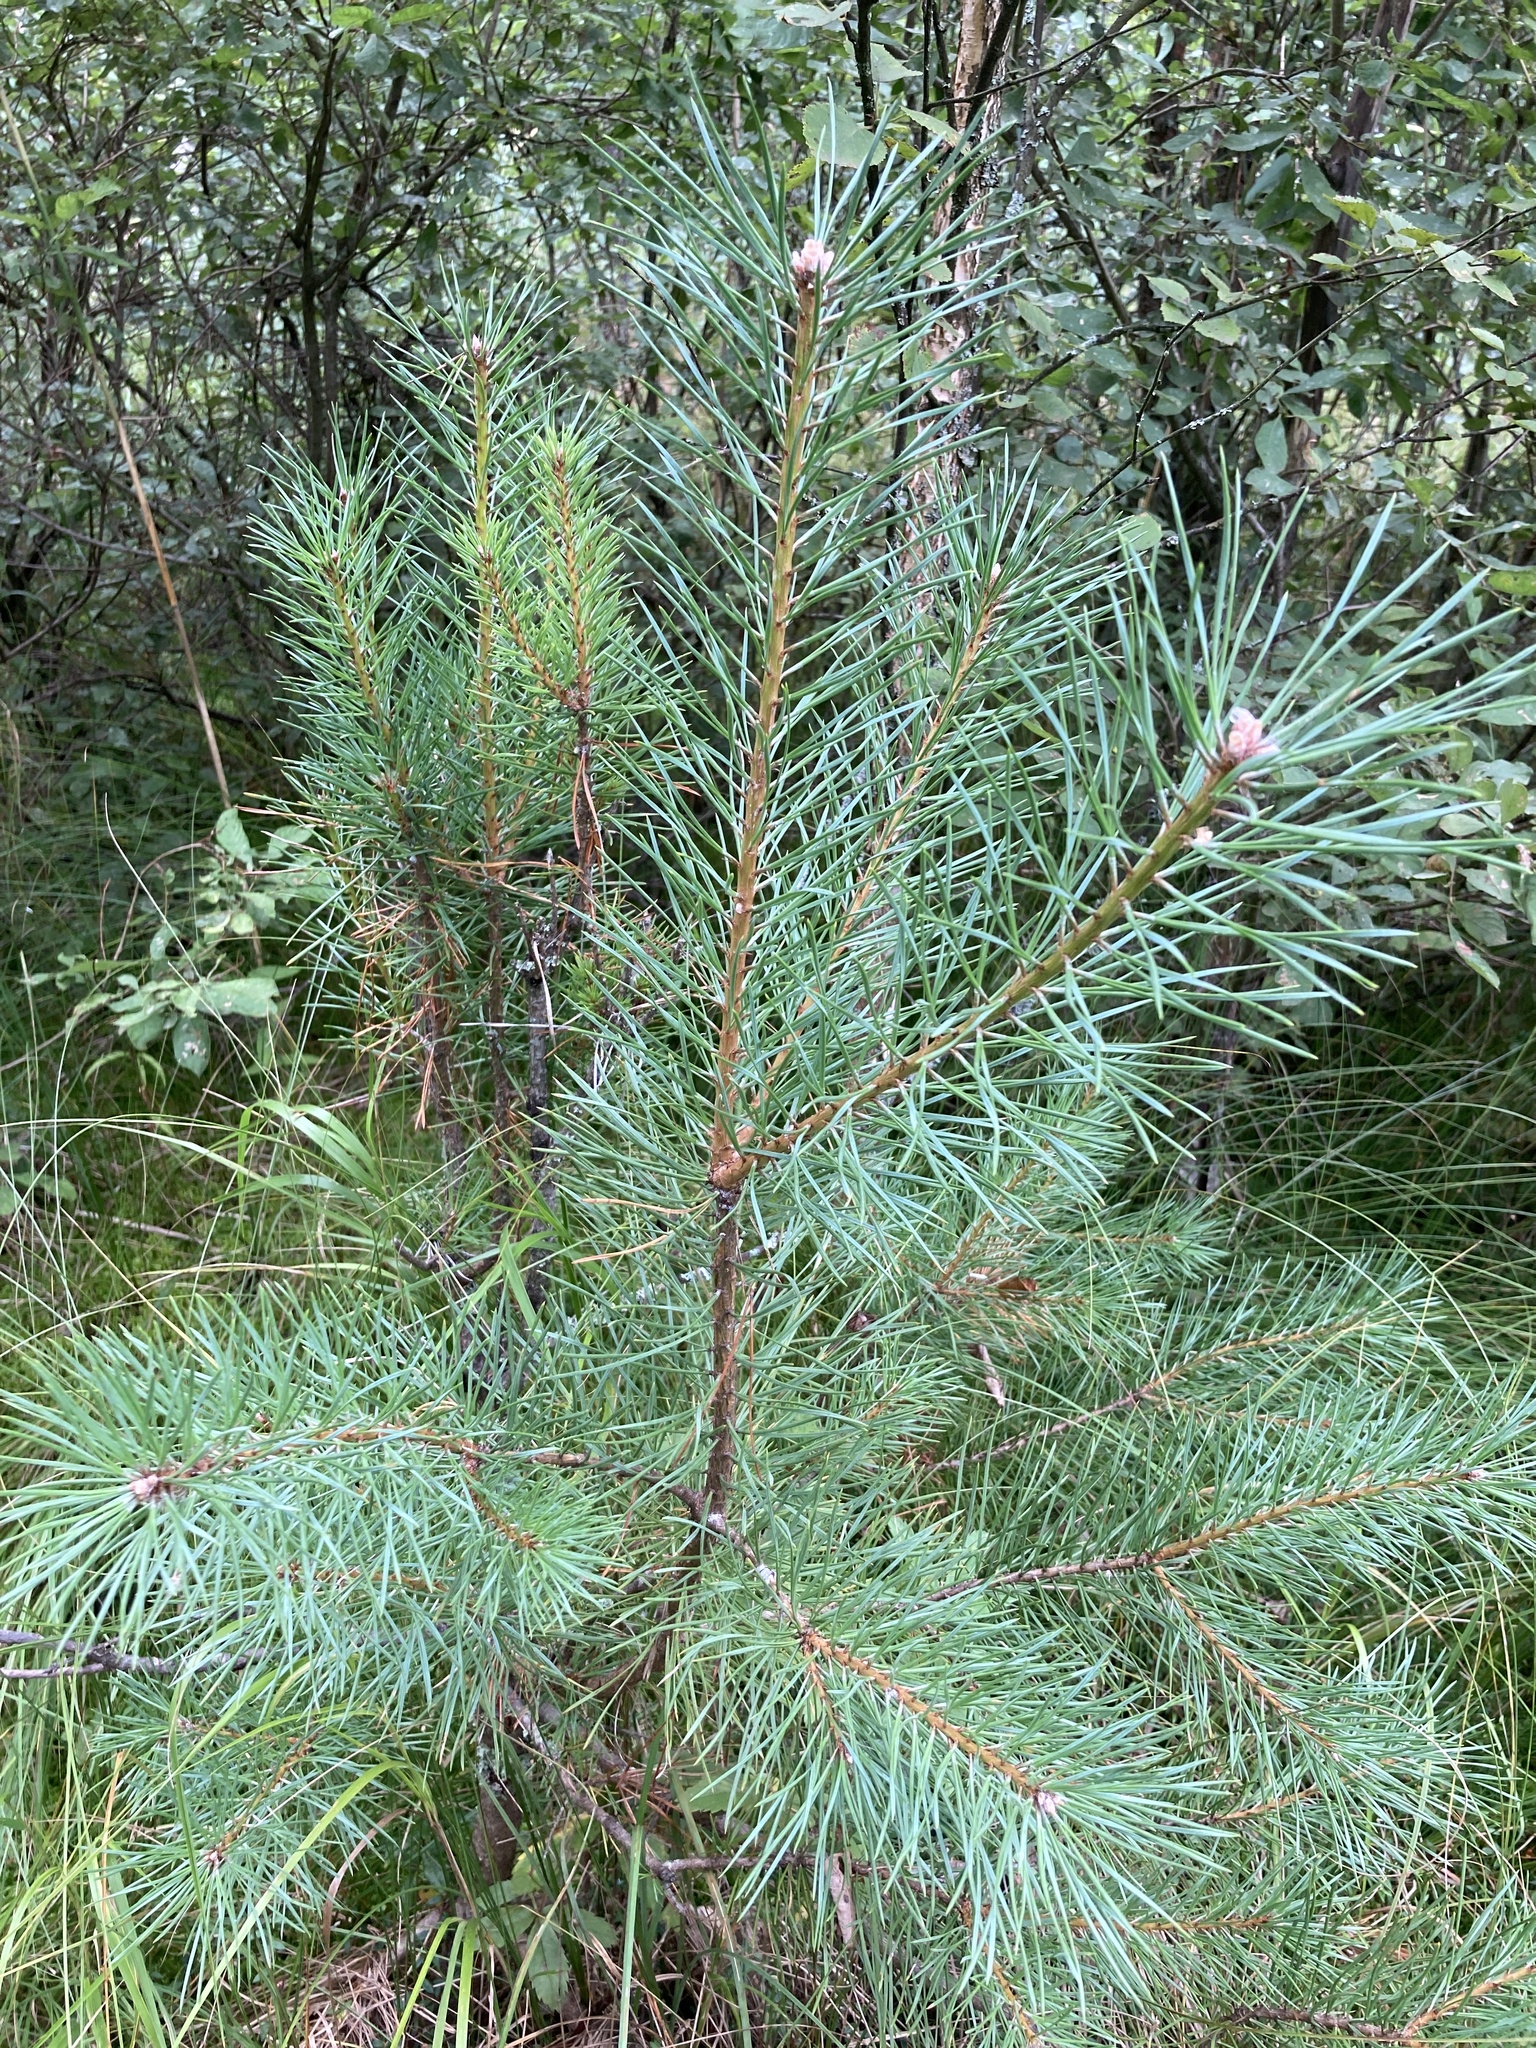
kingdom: Plantae
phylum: Tracheophyta
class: Pinopsida
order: Pinales
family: Pinaceae
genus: Pinus
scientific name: Pinus sylvestris
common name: Scots pine
